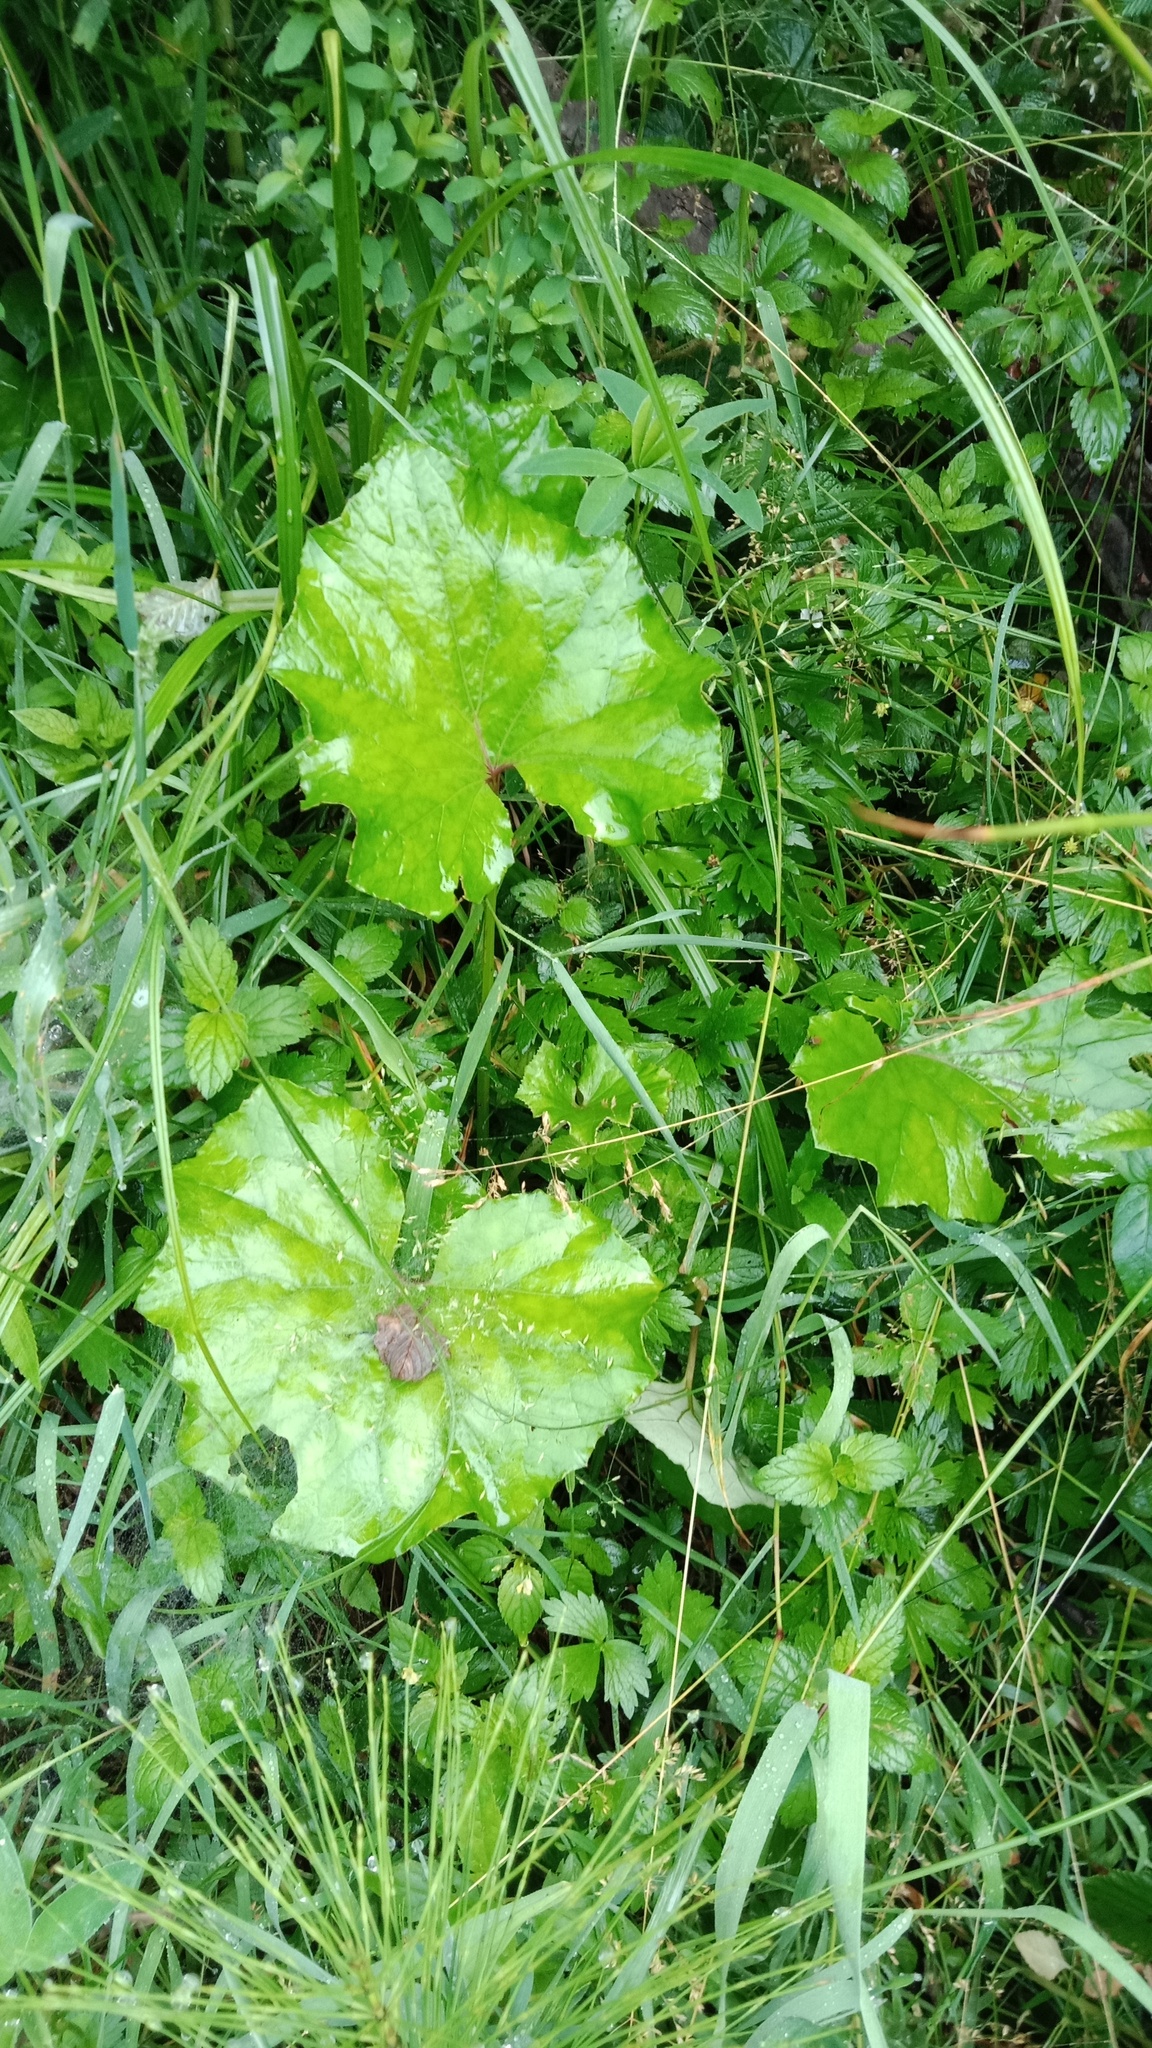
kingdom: Plantae
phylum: Tracheophyta
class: Magnoliopsida
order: Asterales
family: Asteraceae
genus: Tussilago
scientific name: Tussilago farfara
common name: Coltsfoot
